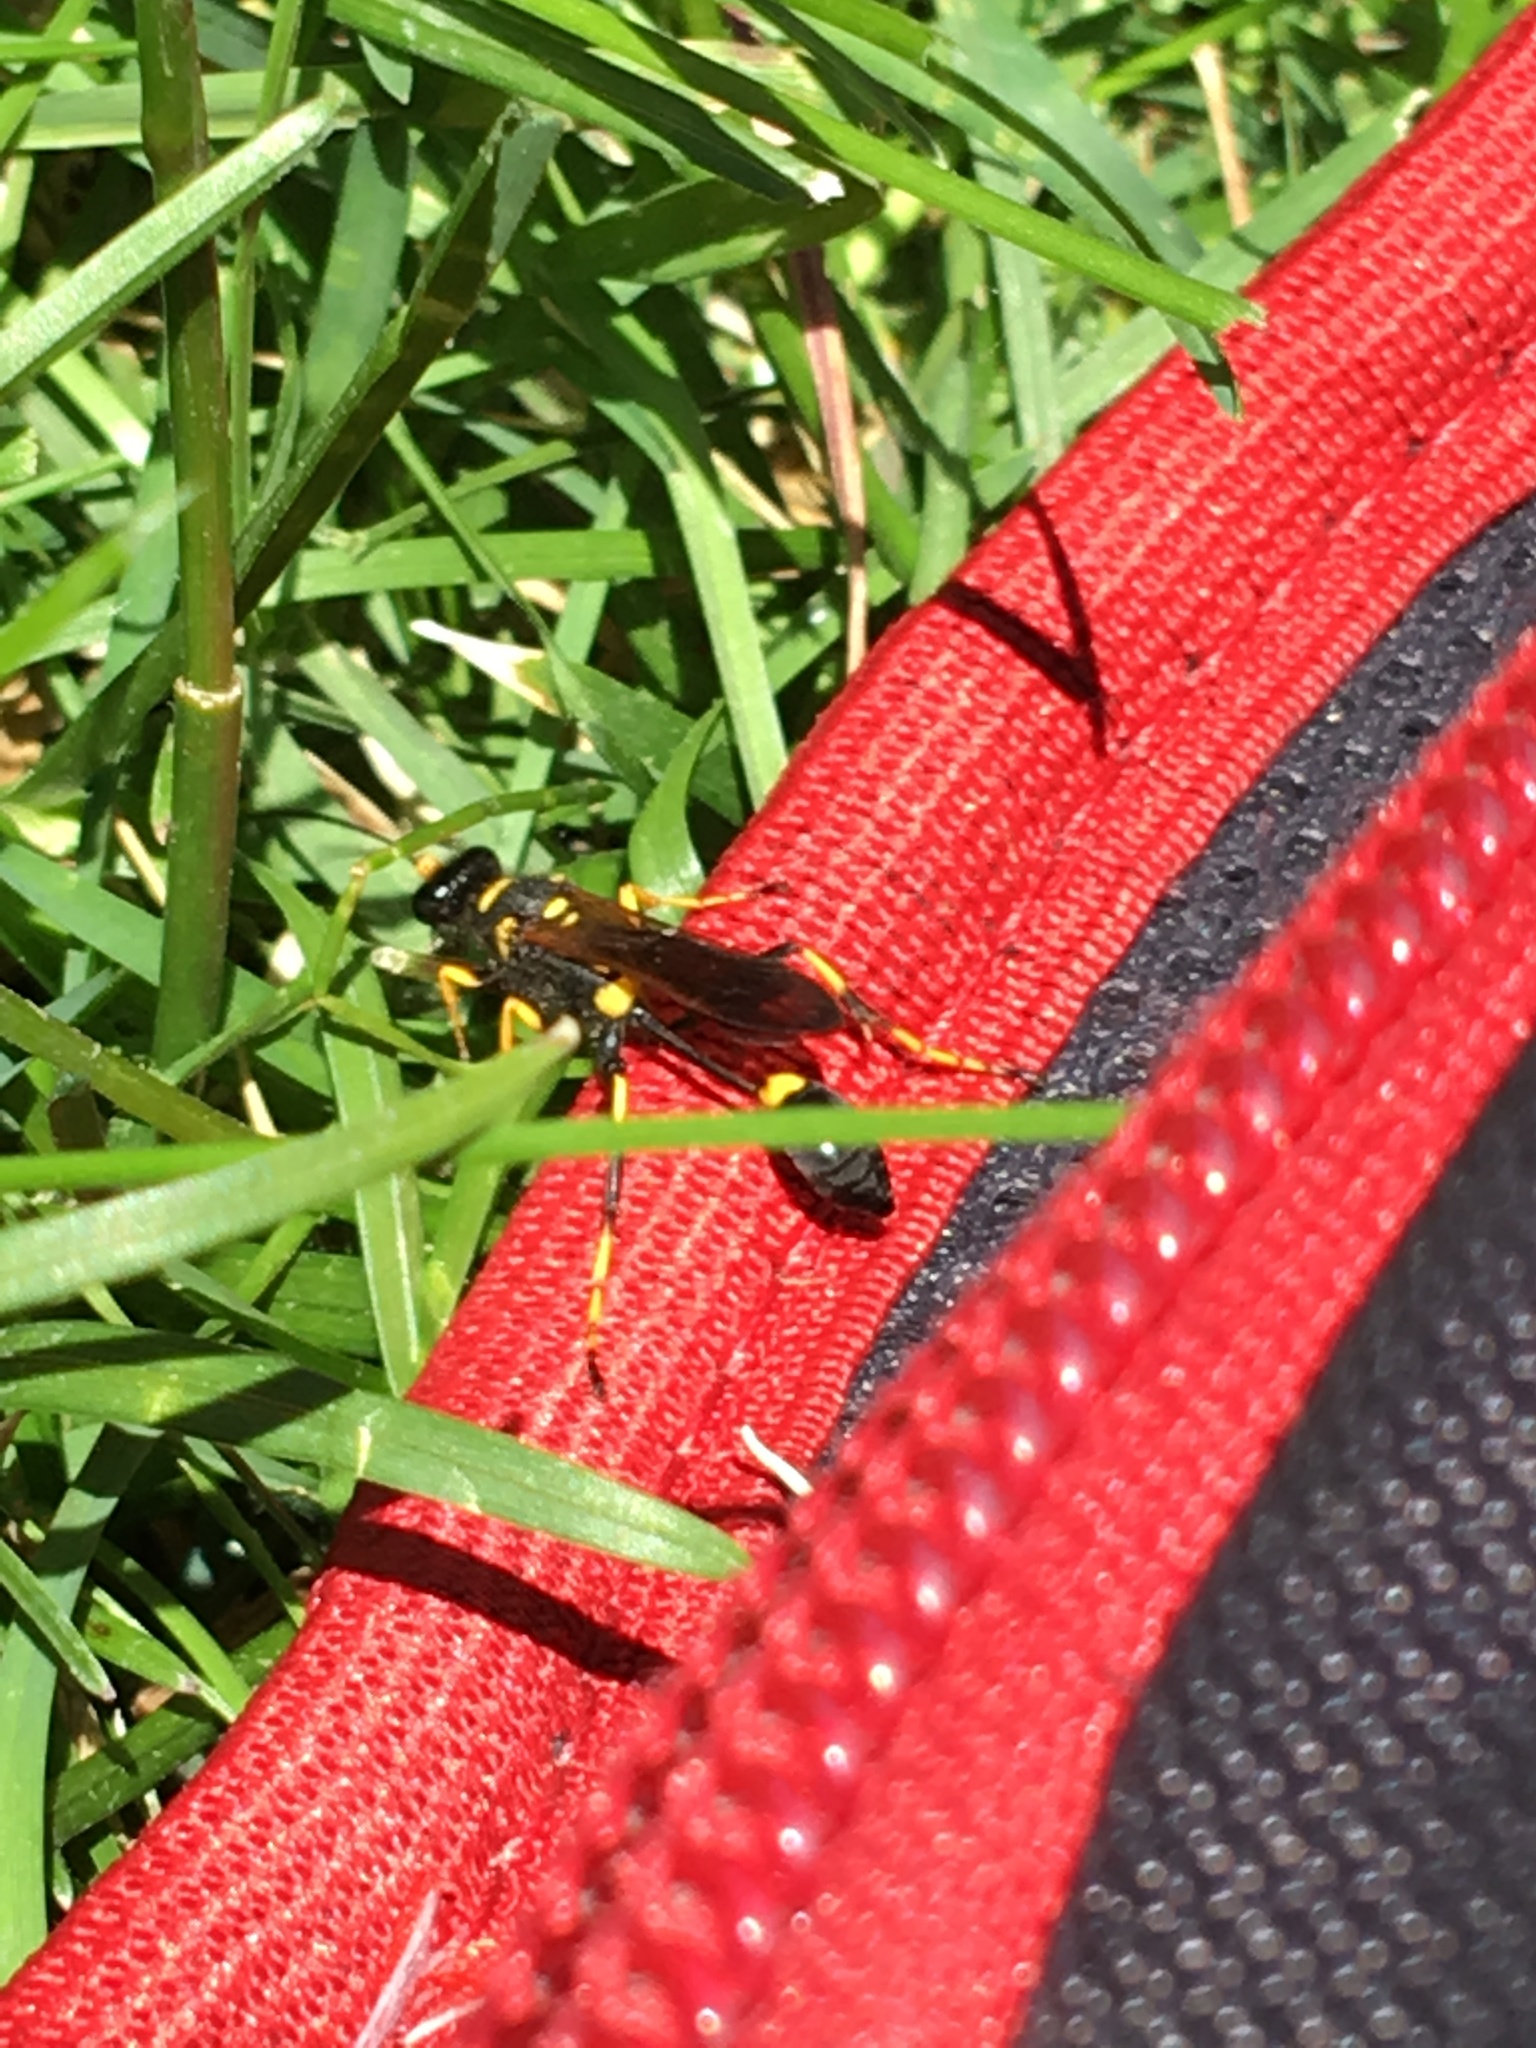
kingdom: Animalia
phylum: Arthropoda
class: Insecta
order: Hymenoptera
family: Sphecidae
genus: Sceliphron
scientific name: Sceliphron caementarium
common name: Mud dauber
